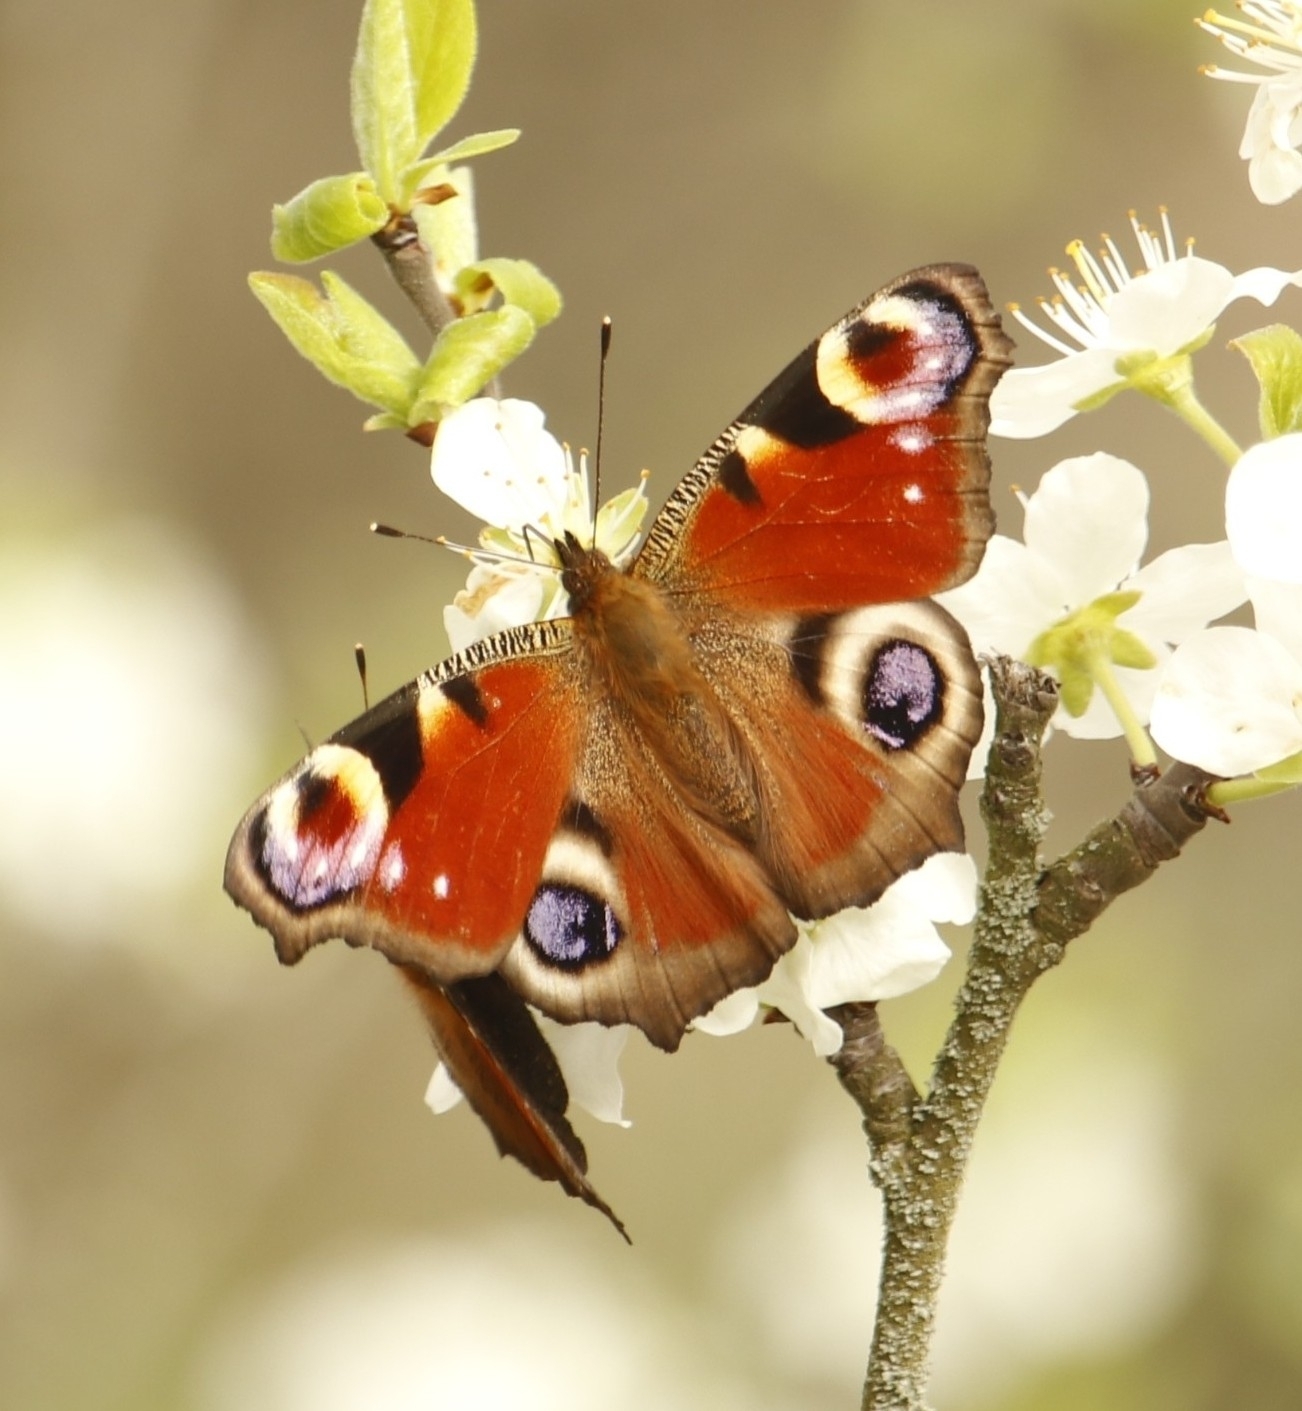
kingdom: Animalia
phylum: Arthropoda
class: Insecta
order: Lepidoptera
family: Nymphalidae
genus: Aglais
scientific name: Aglais io
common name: Peacock
